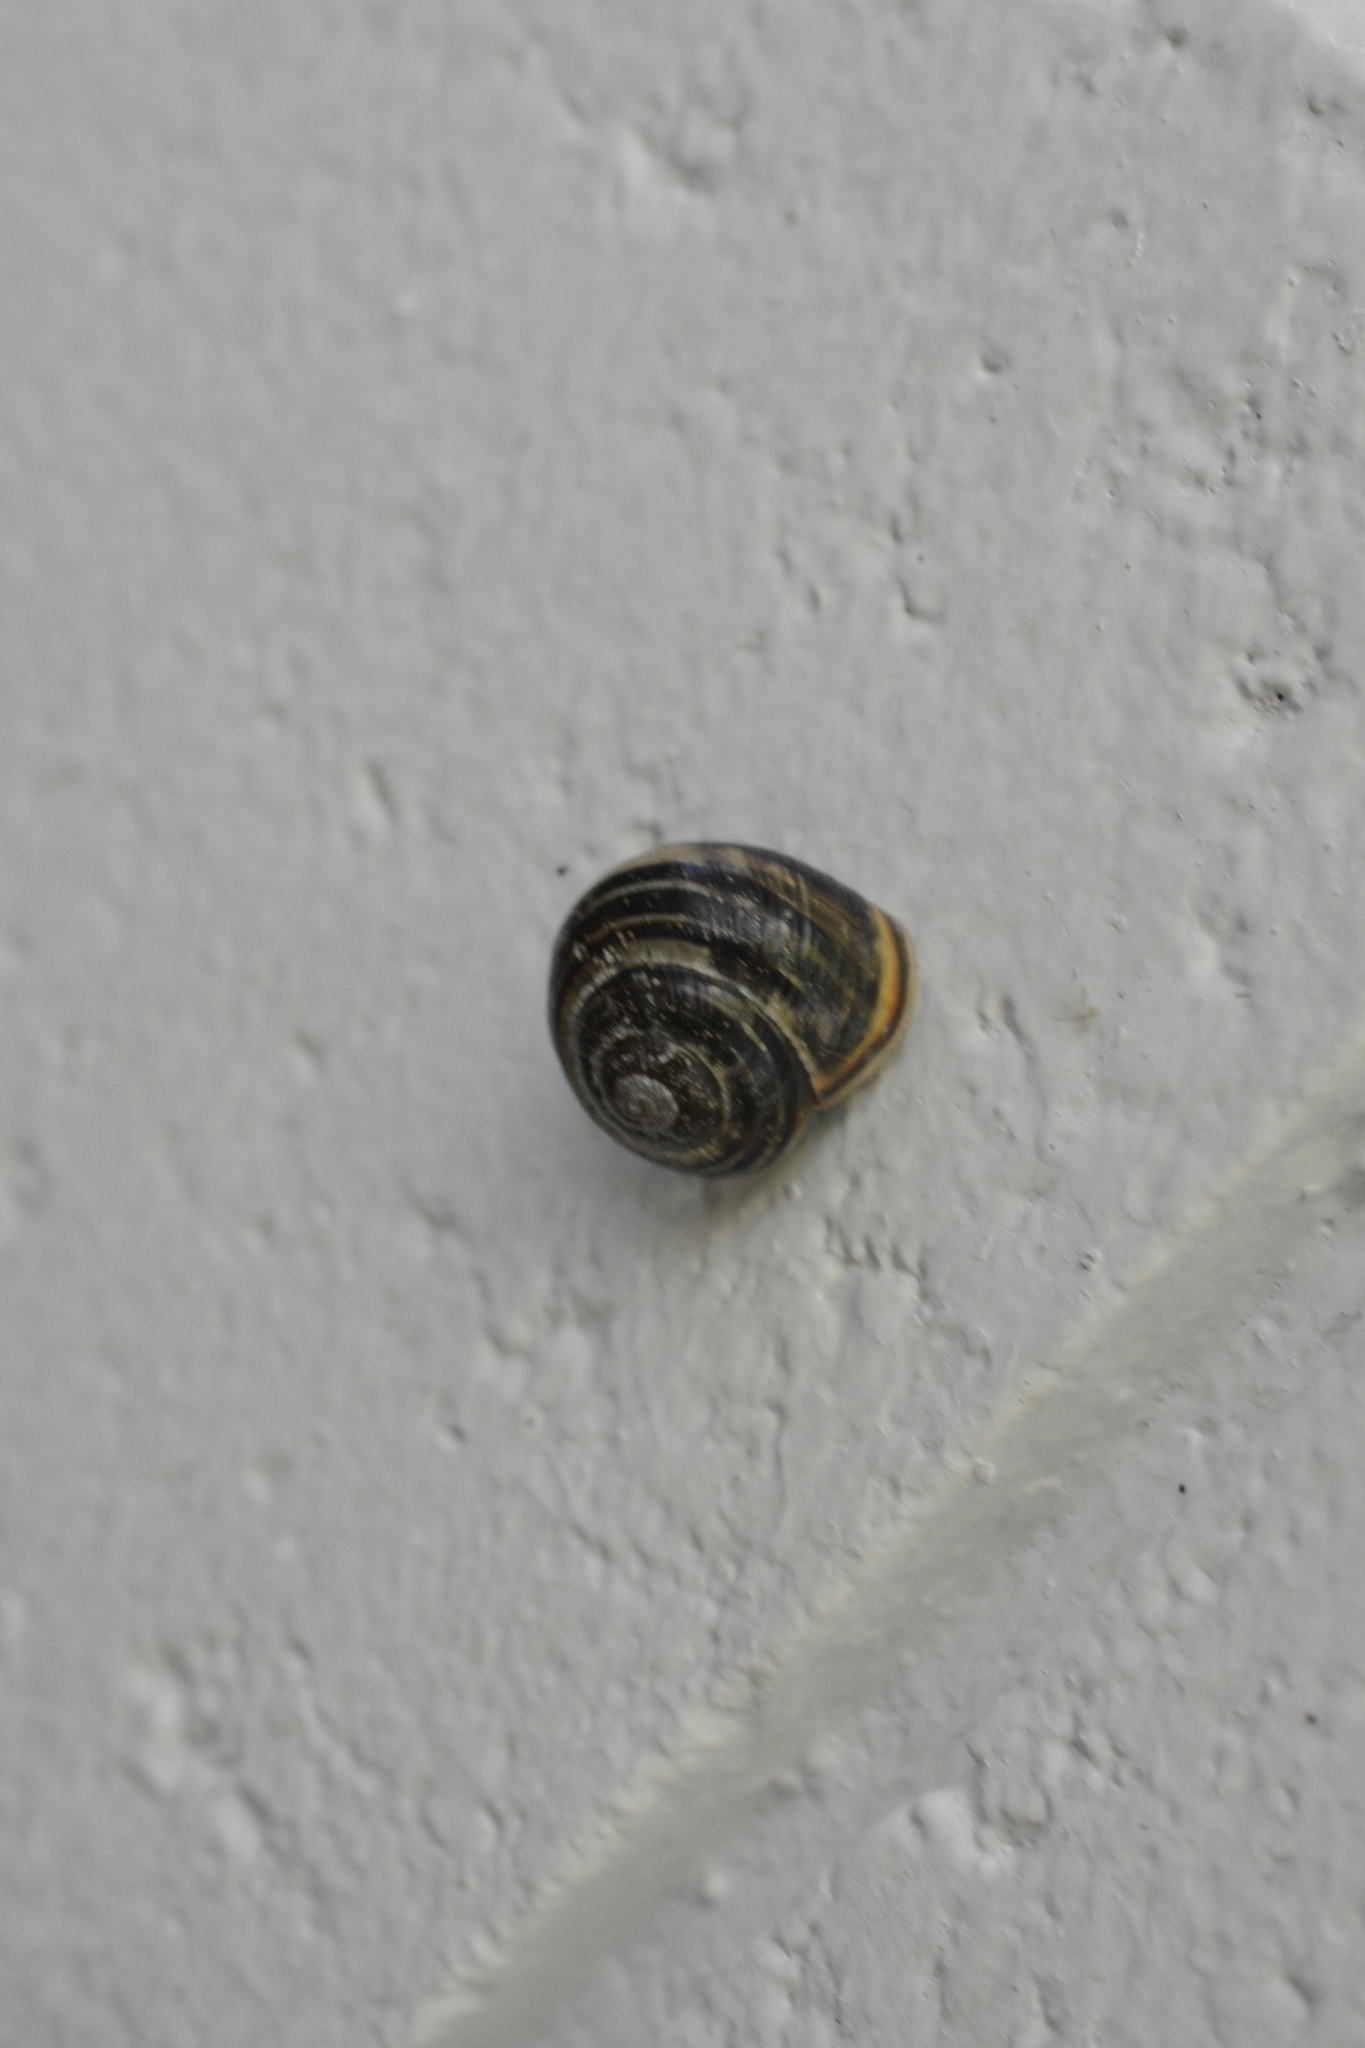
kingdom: Animalia
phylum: Mollusca
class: Gastropoda
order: Stylommatophora
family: Helicidae
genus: Cepaea
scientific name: Cepaea nemoralis
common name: Grovesnail
